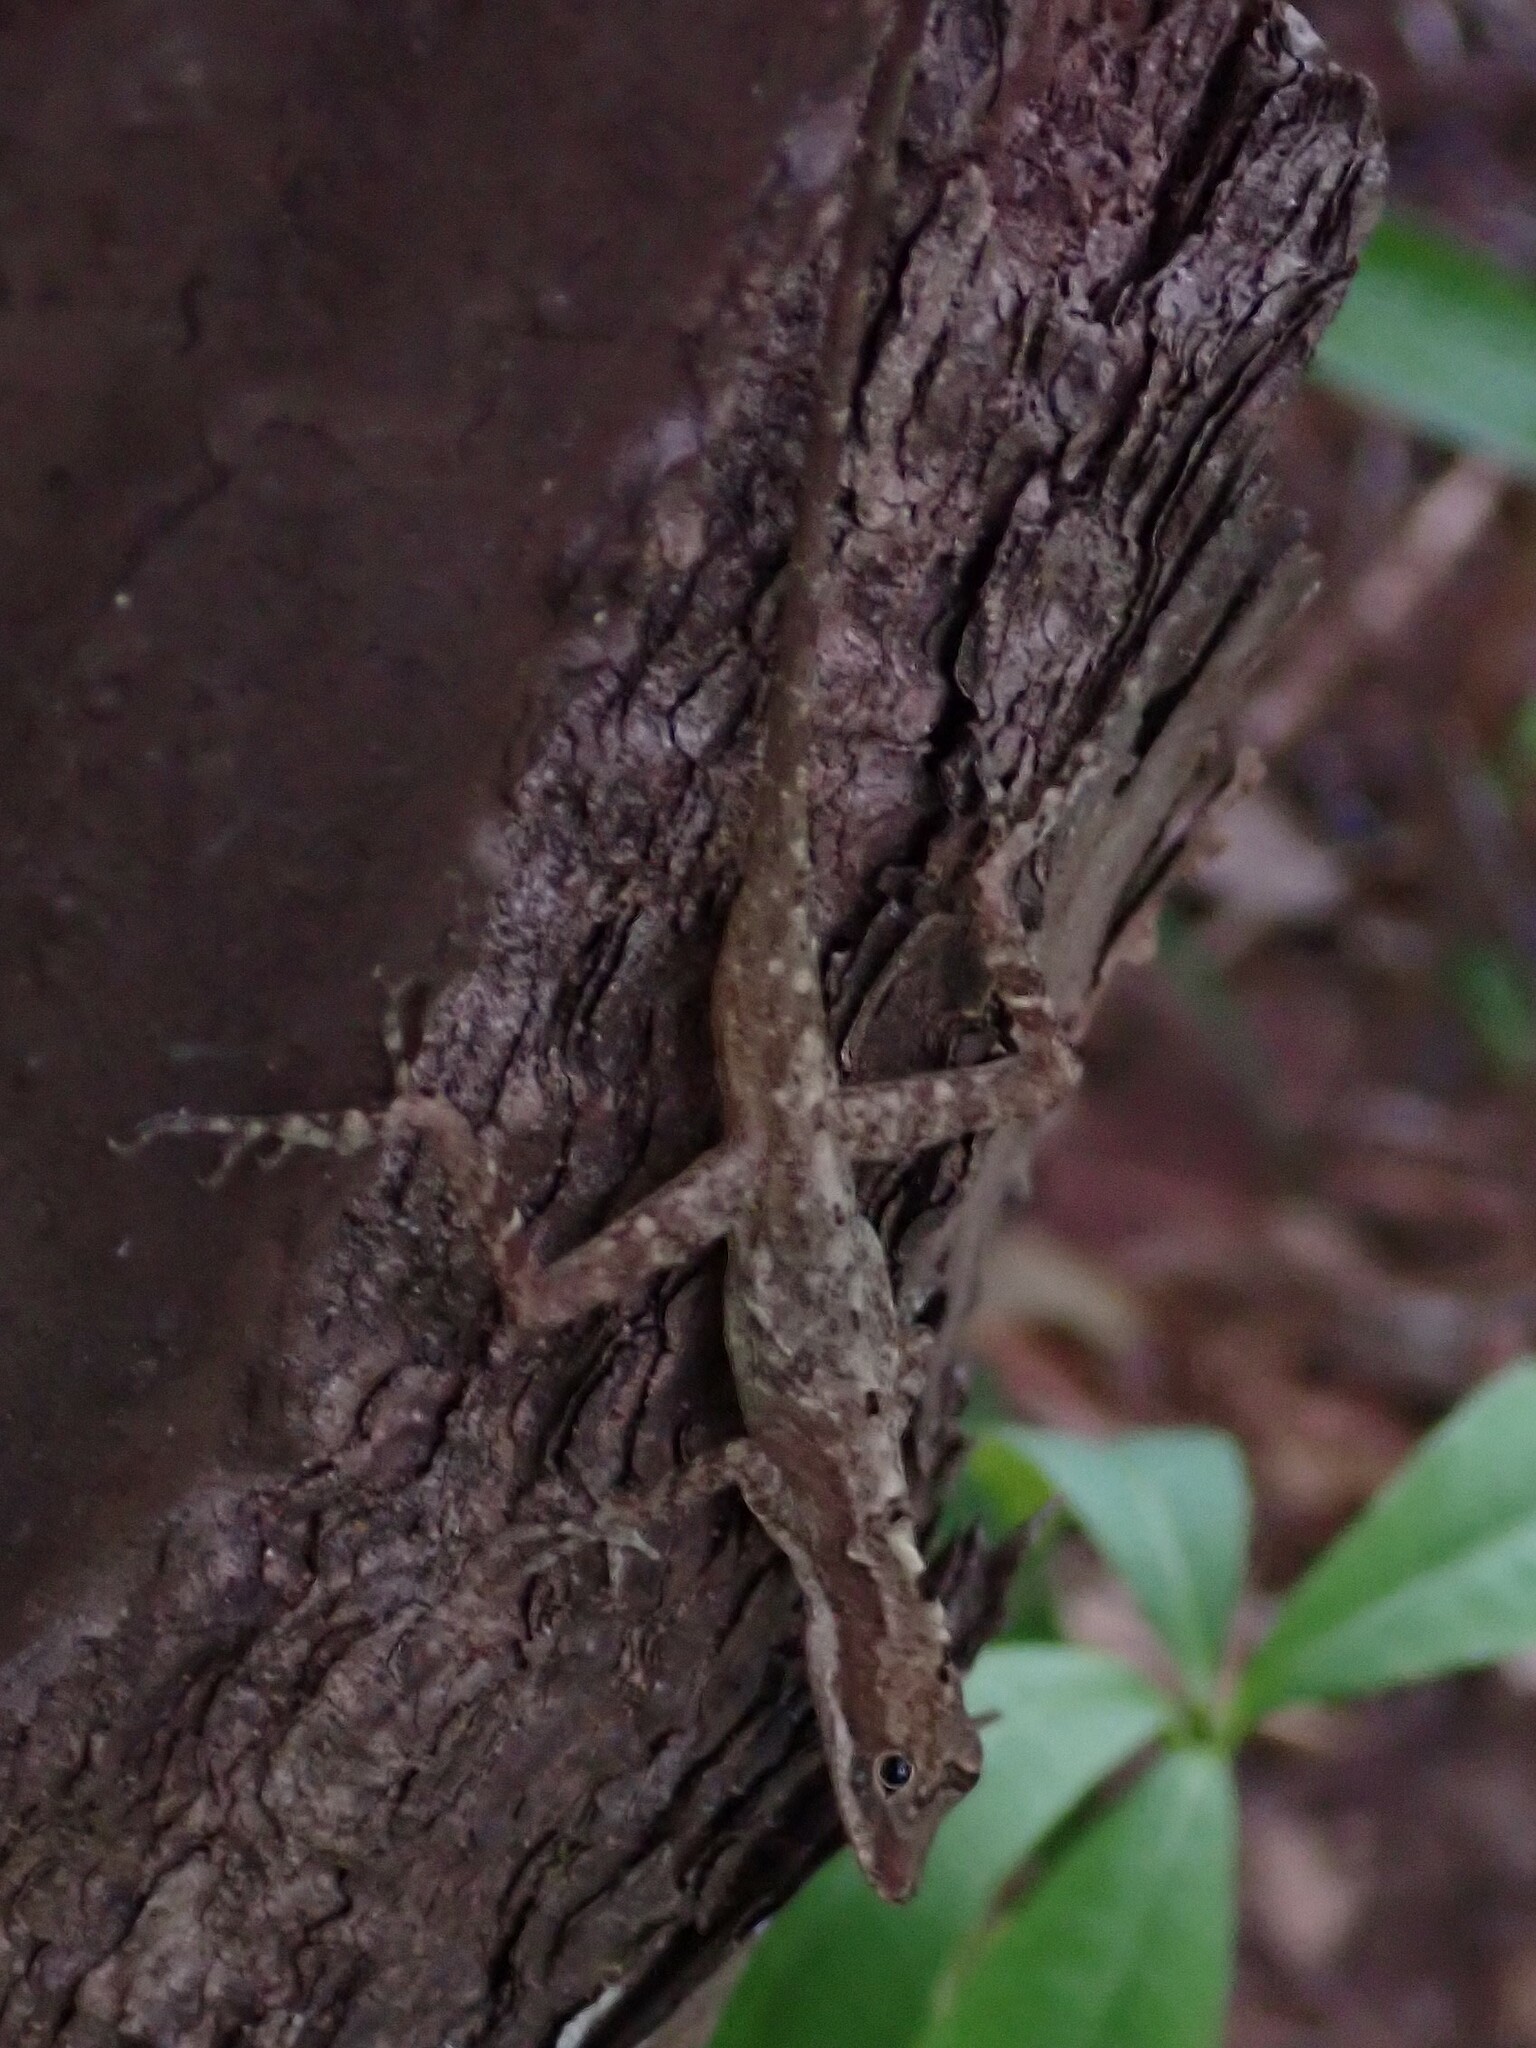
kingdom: Animalia
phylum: Chordata
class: Squamata
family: Dactyloidae
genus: Anolis
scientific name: Anolis rodriguezii
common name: Middle american smooth anole
